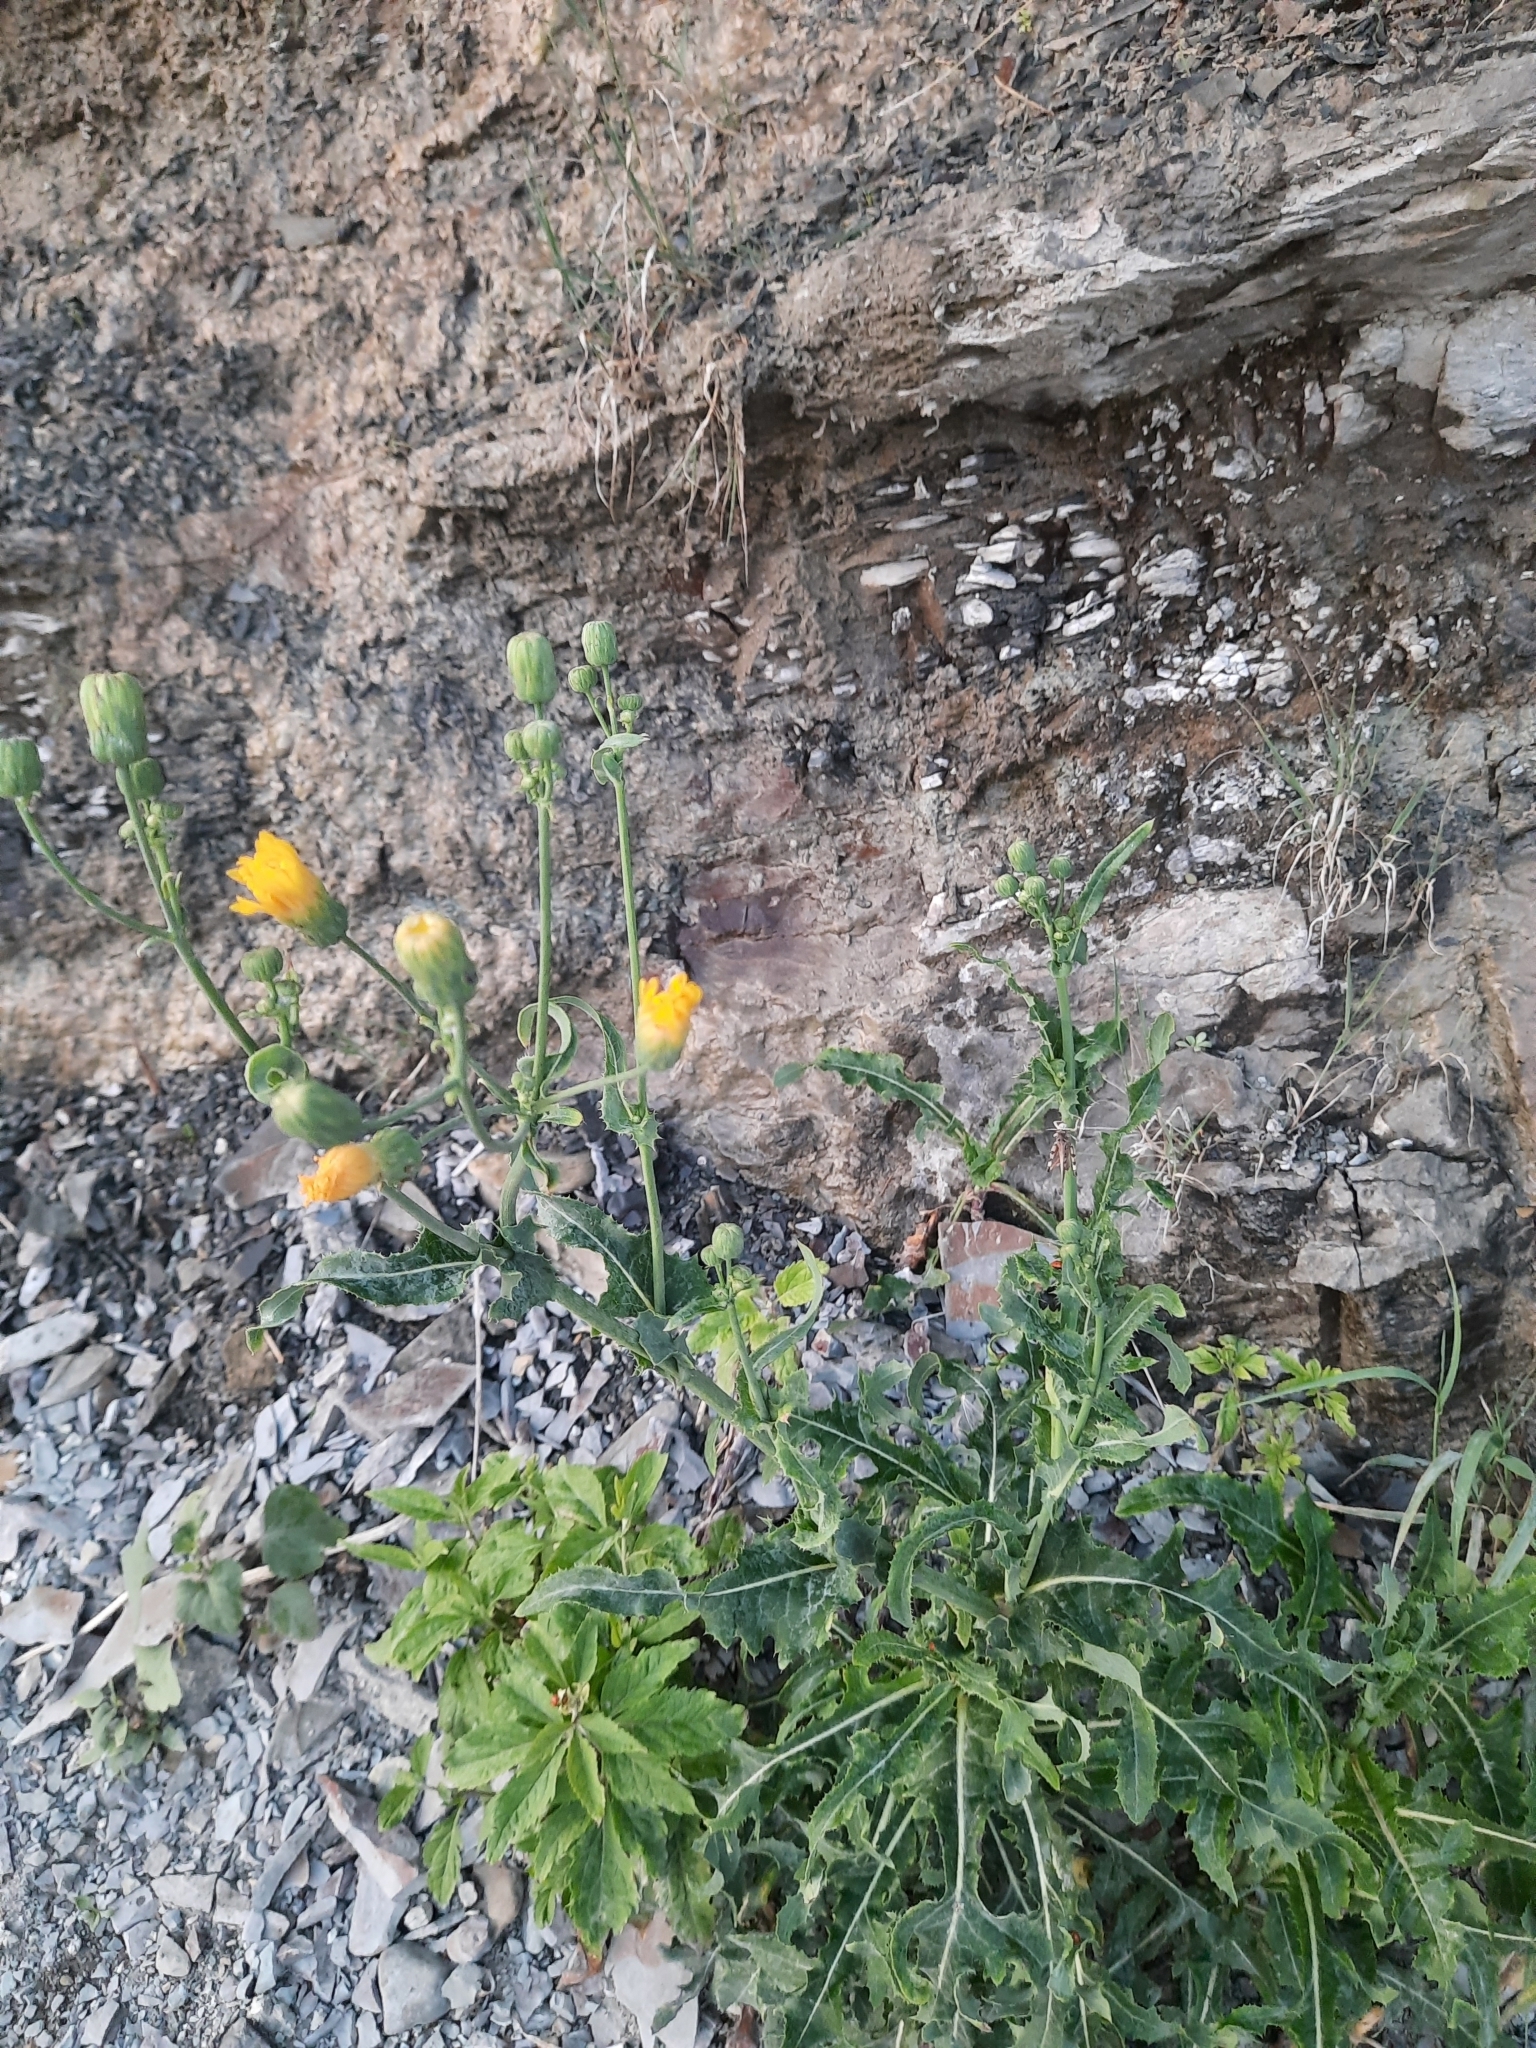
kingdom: Plantae
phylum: Tracheophyta
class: Magnoliopsida
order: Asterales
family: Asteraceae
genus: Sonchus
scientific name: Sonchus arvensis
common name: Perennial sow-thistle
